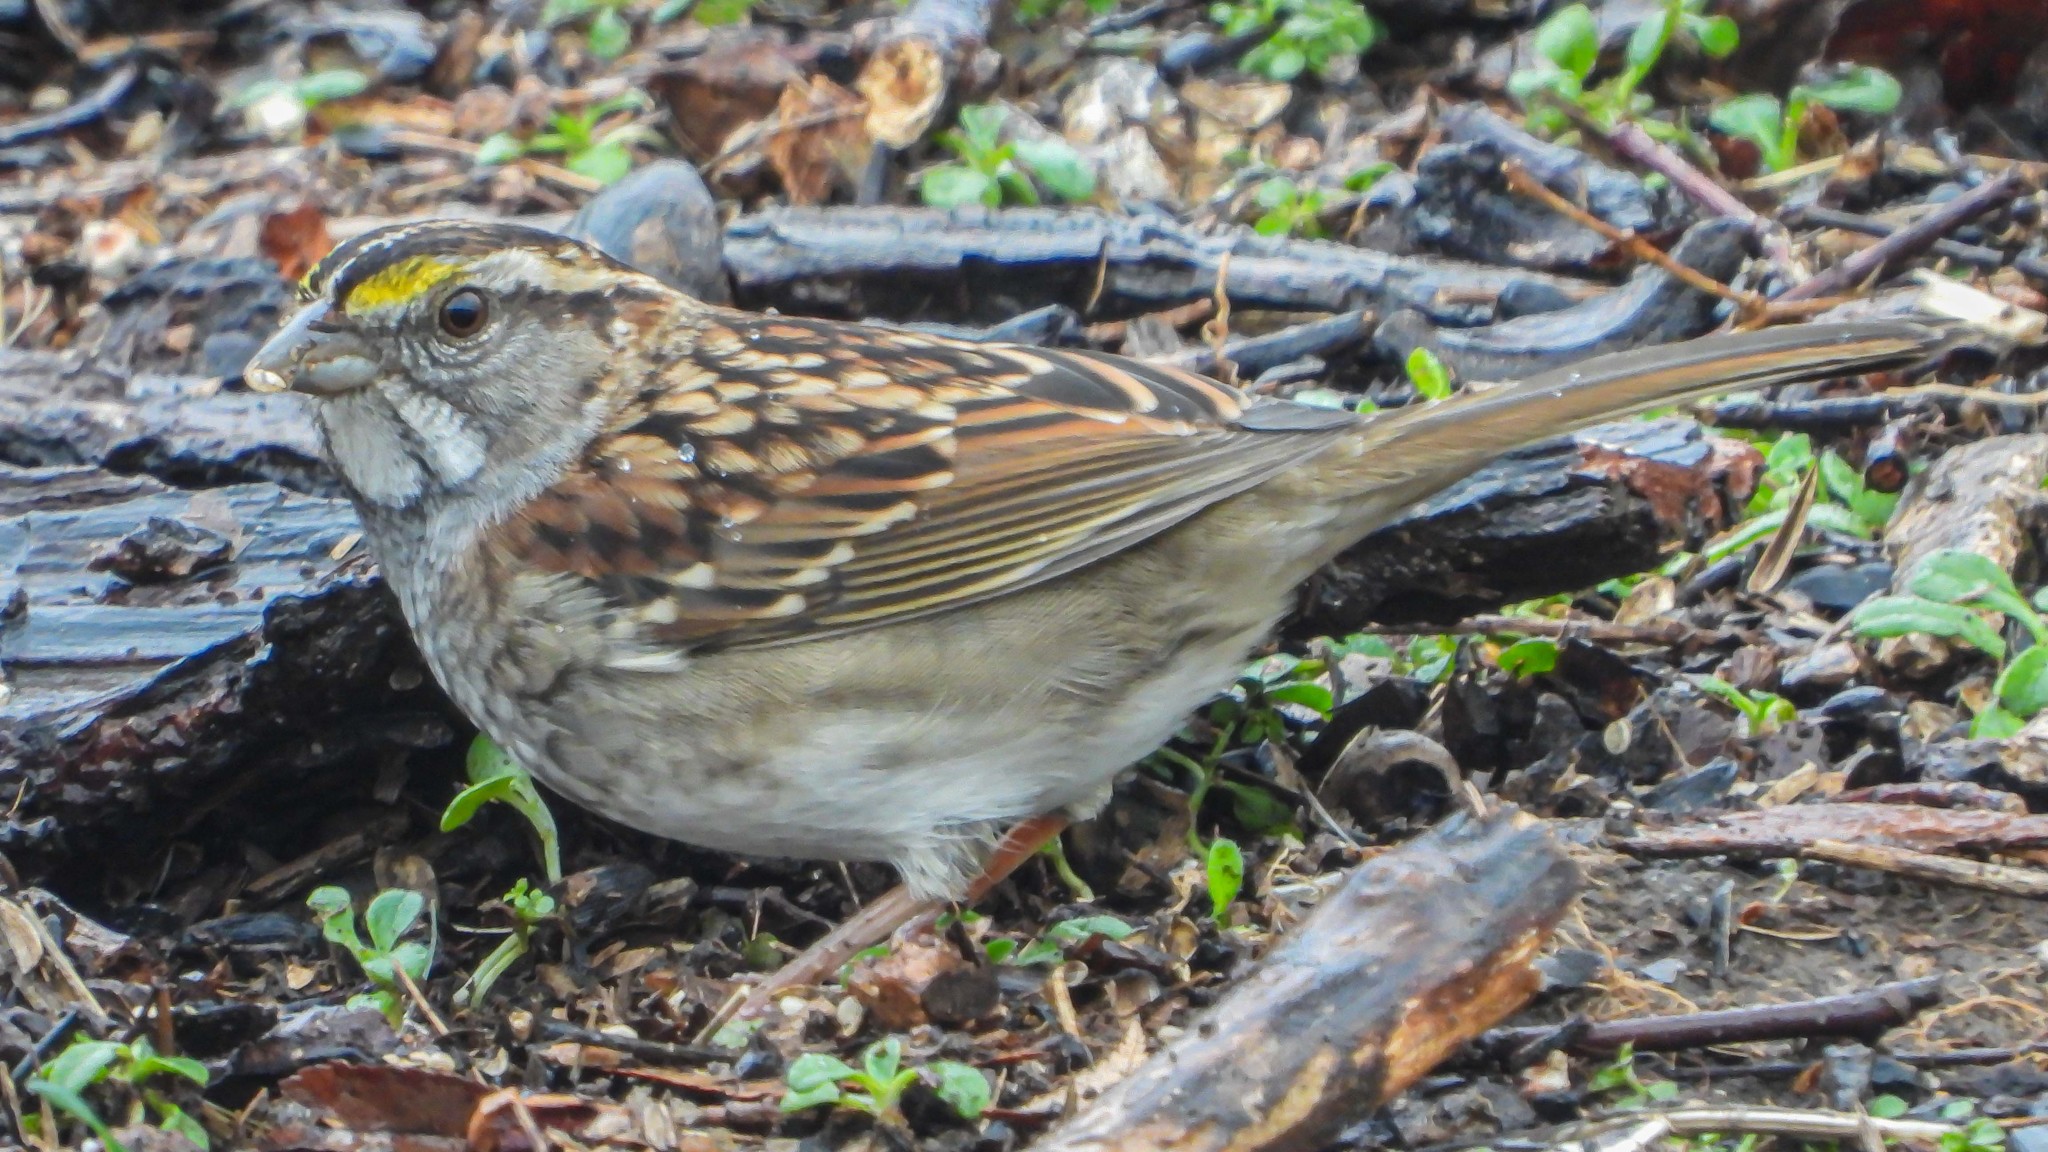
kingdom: Animalia
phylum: Chordata
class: Aves
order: Passeriformes
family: Passerellidae
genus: Zonotrichia
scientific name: Zonotrichia albicollis
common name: White-throated sparrow
